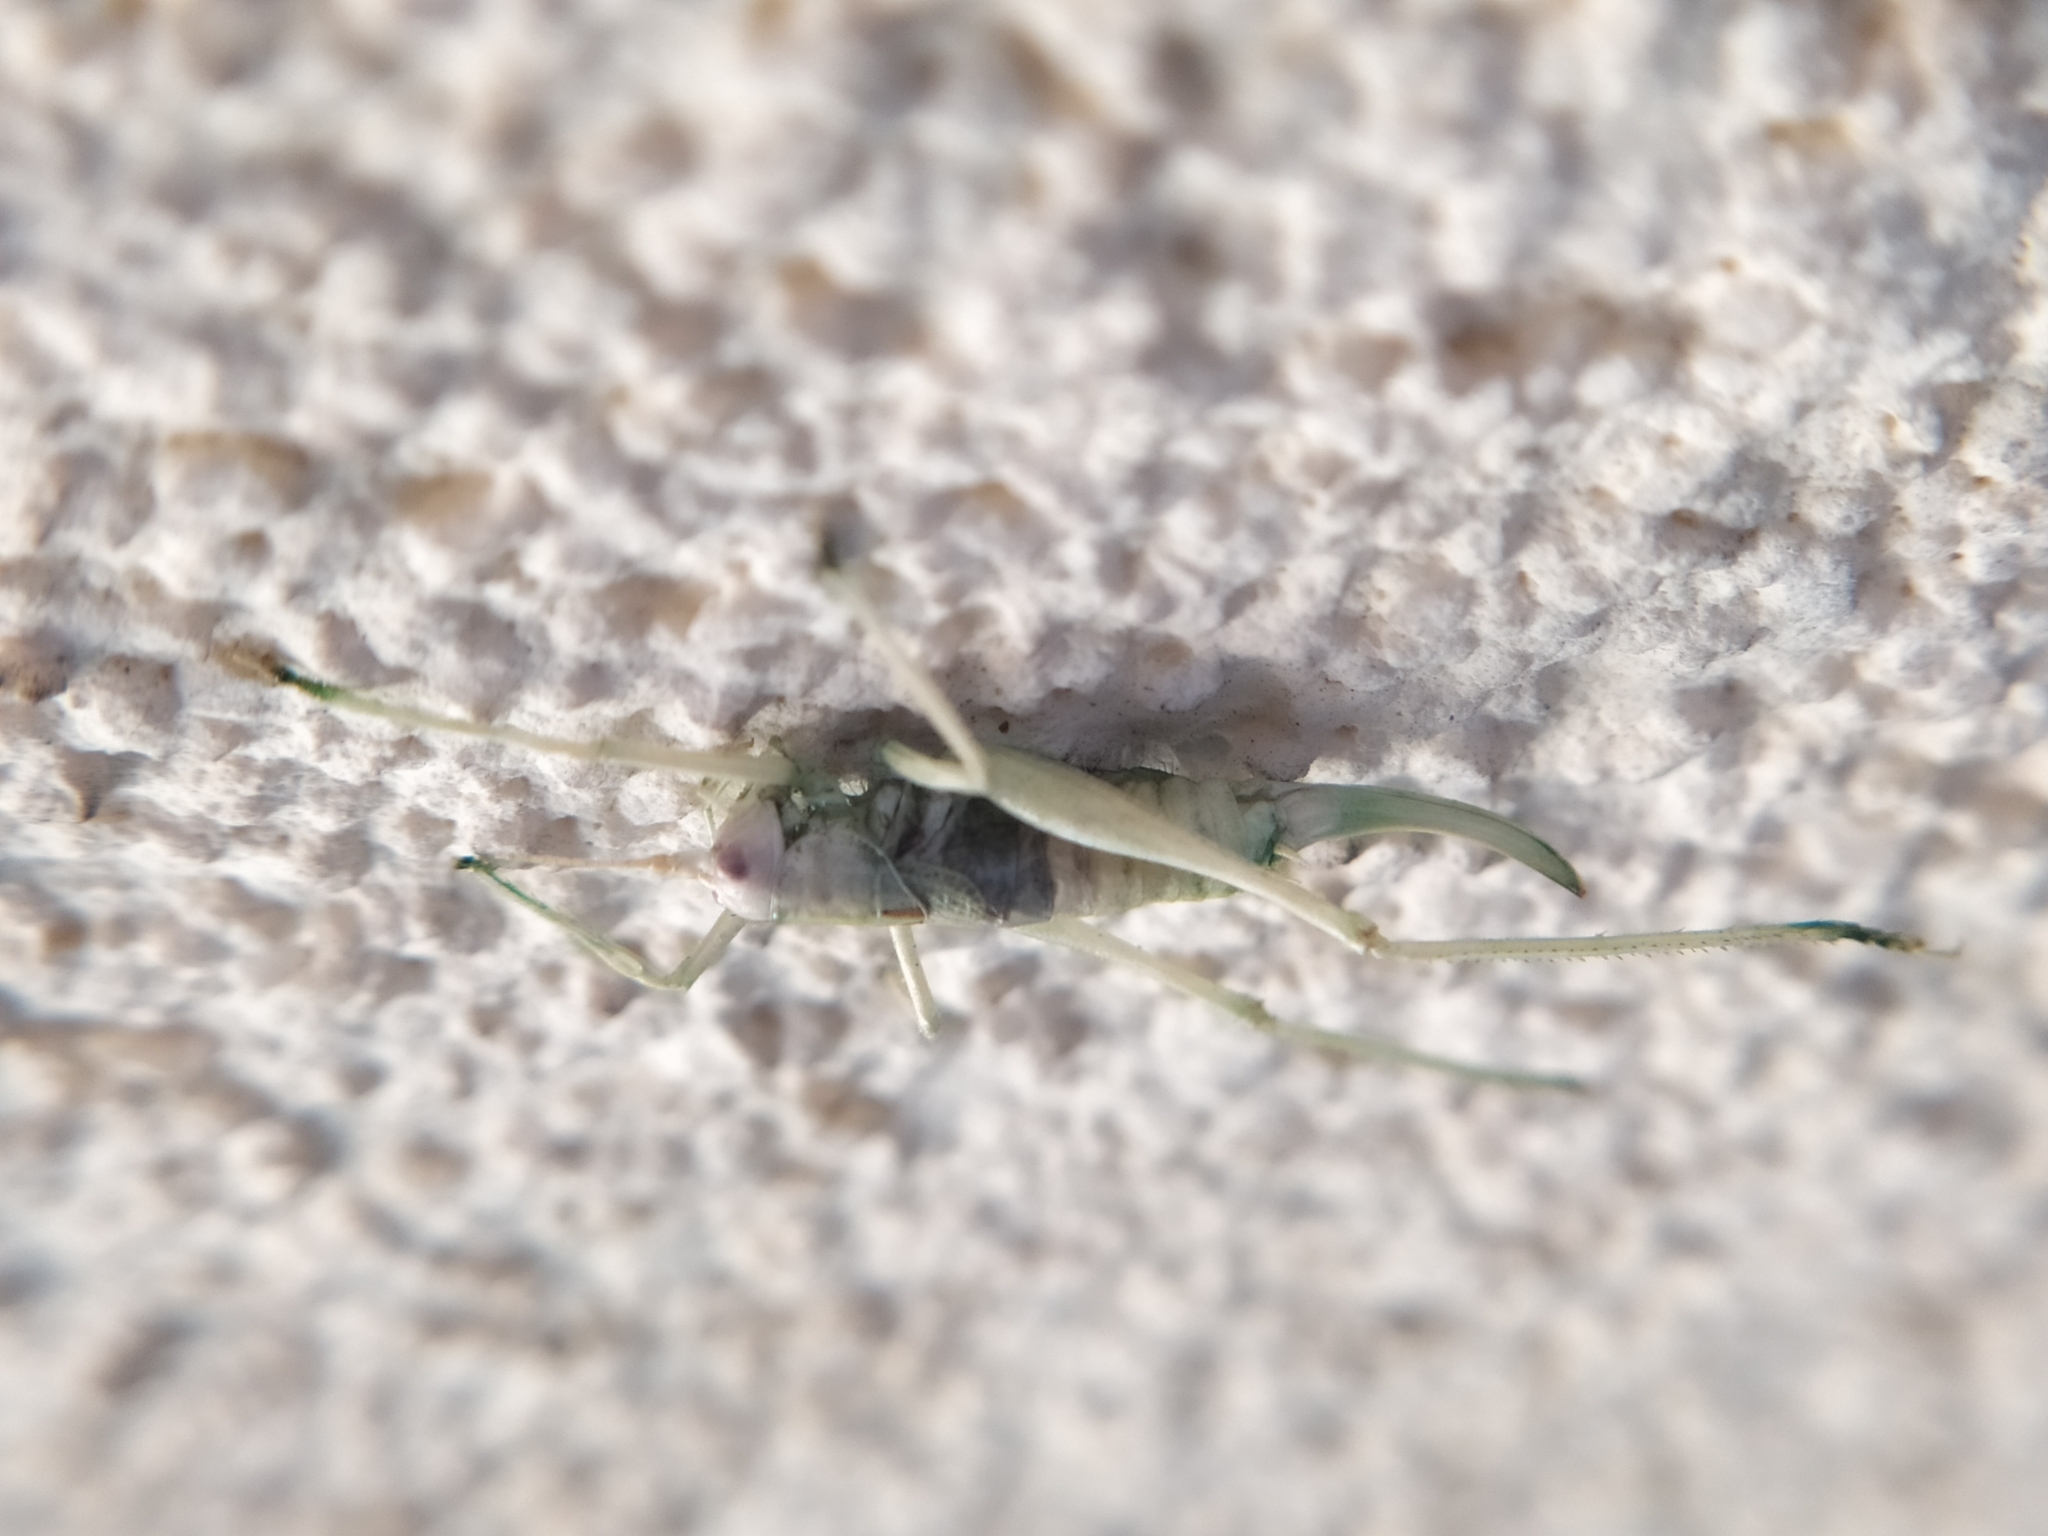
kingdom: Animalia
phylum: Arthropoda
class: Insecta
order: Orthoptera
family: Tettigoniidae
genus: Meconema
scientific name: Meconema meridionale
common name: Southern oak bush-cricket
